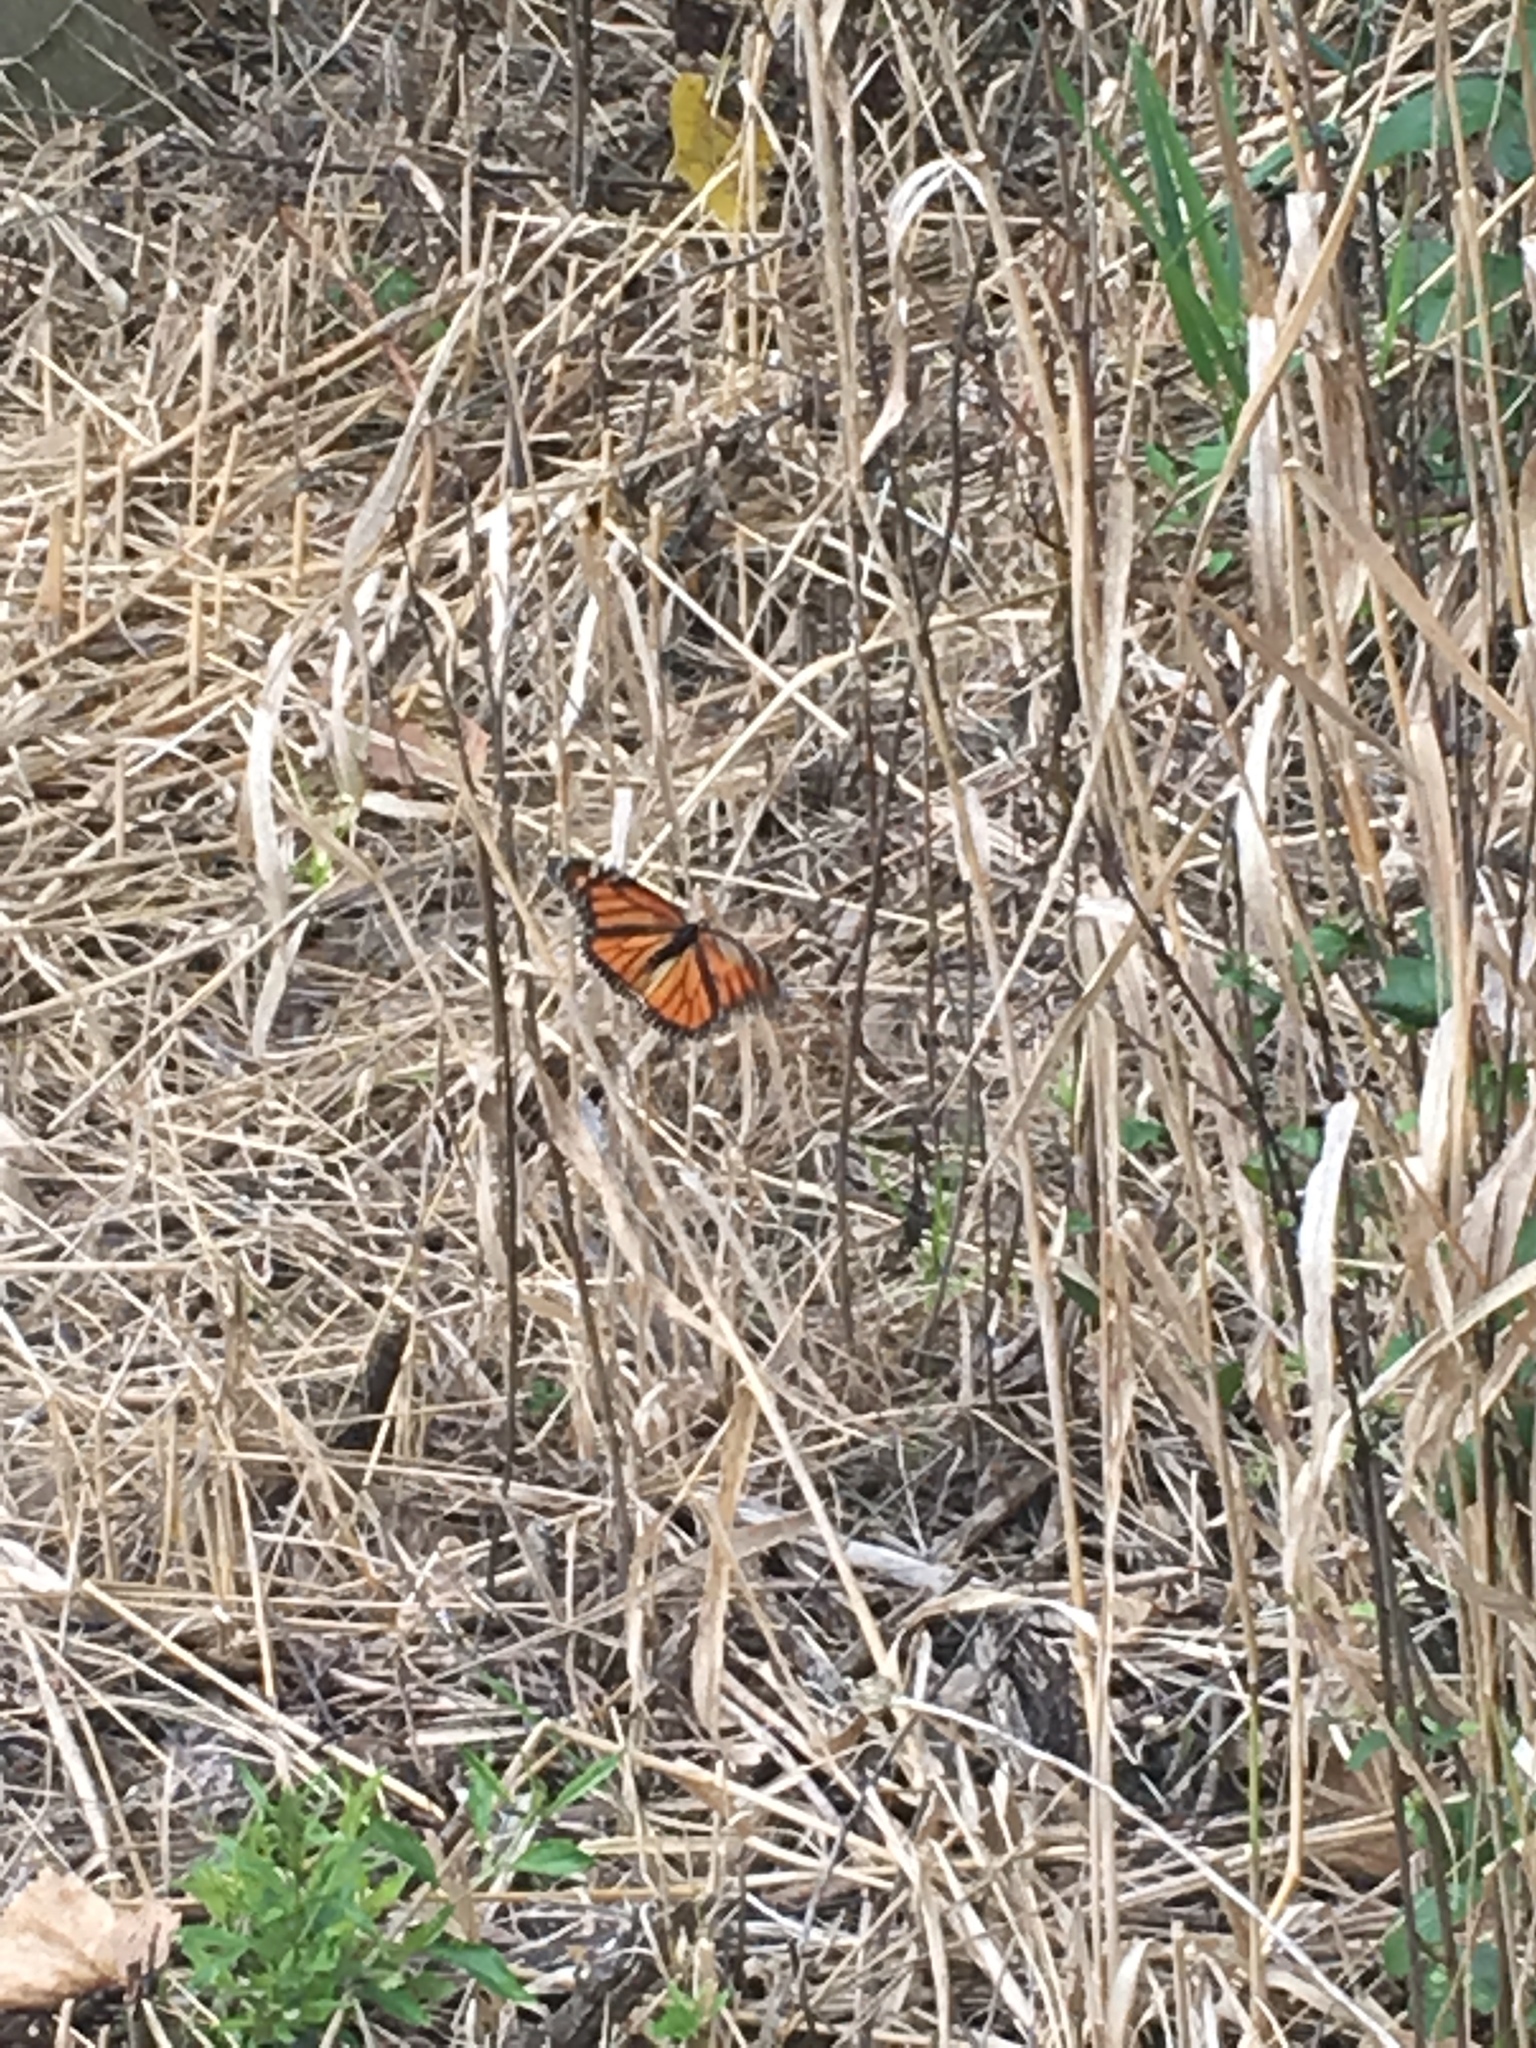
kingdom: Animalia
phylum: Arthropoda
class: Insecta
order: Lepidoptera
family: Nymphalidae
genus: Danaus
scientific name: Danaus plexippus
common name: Monarch
